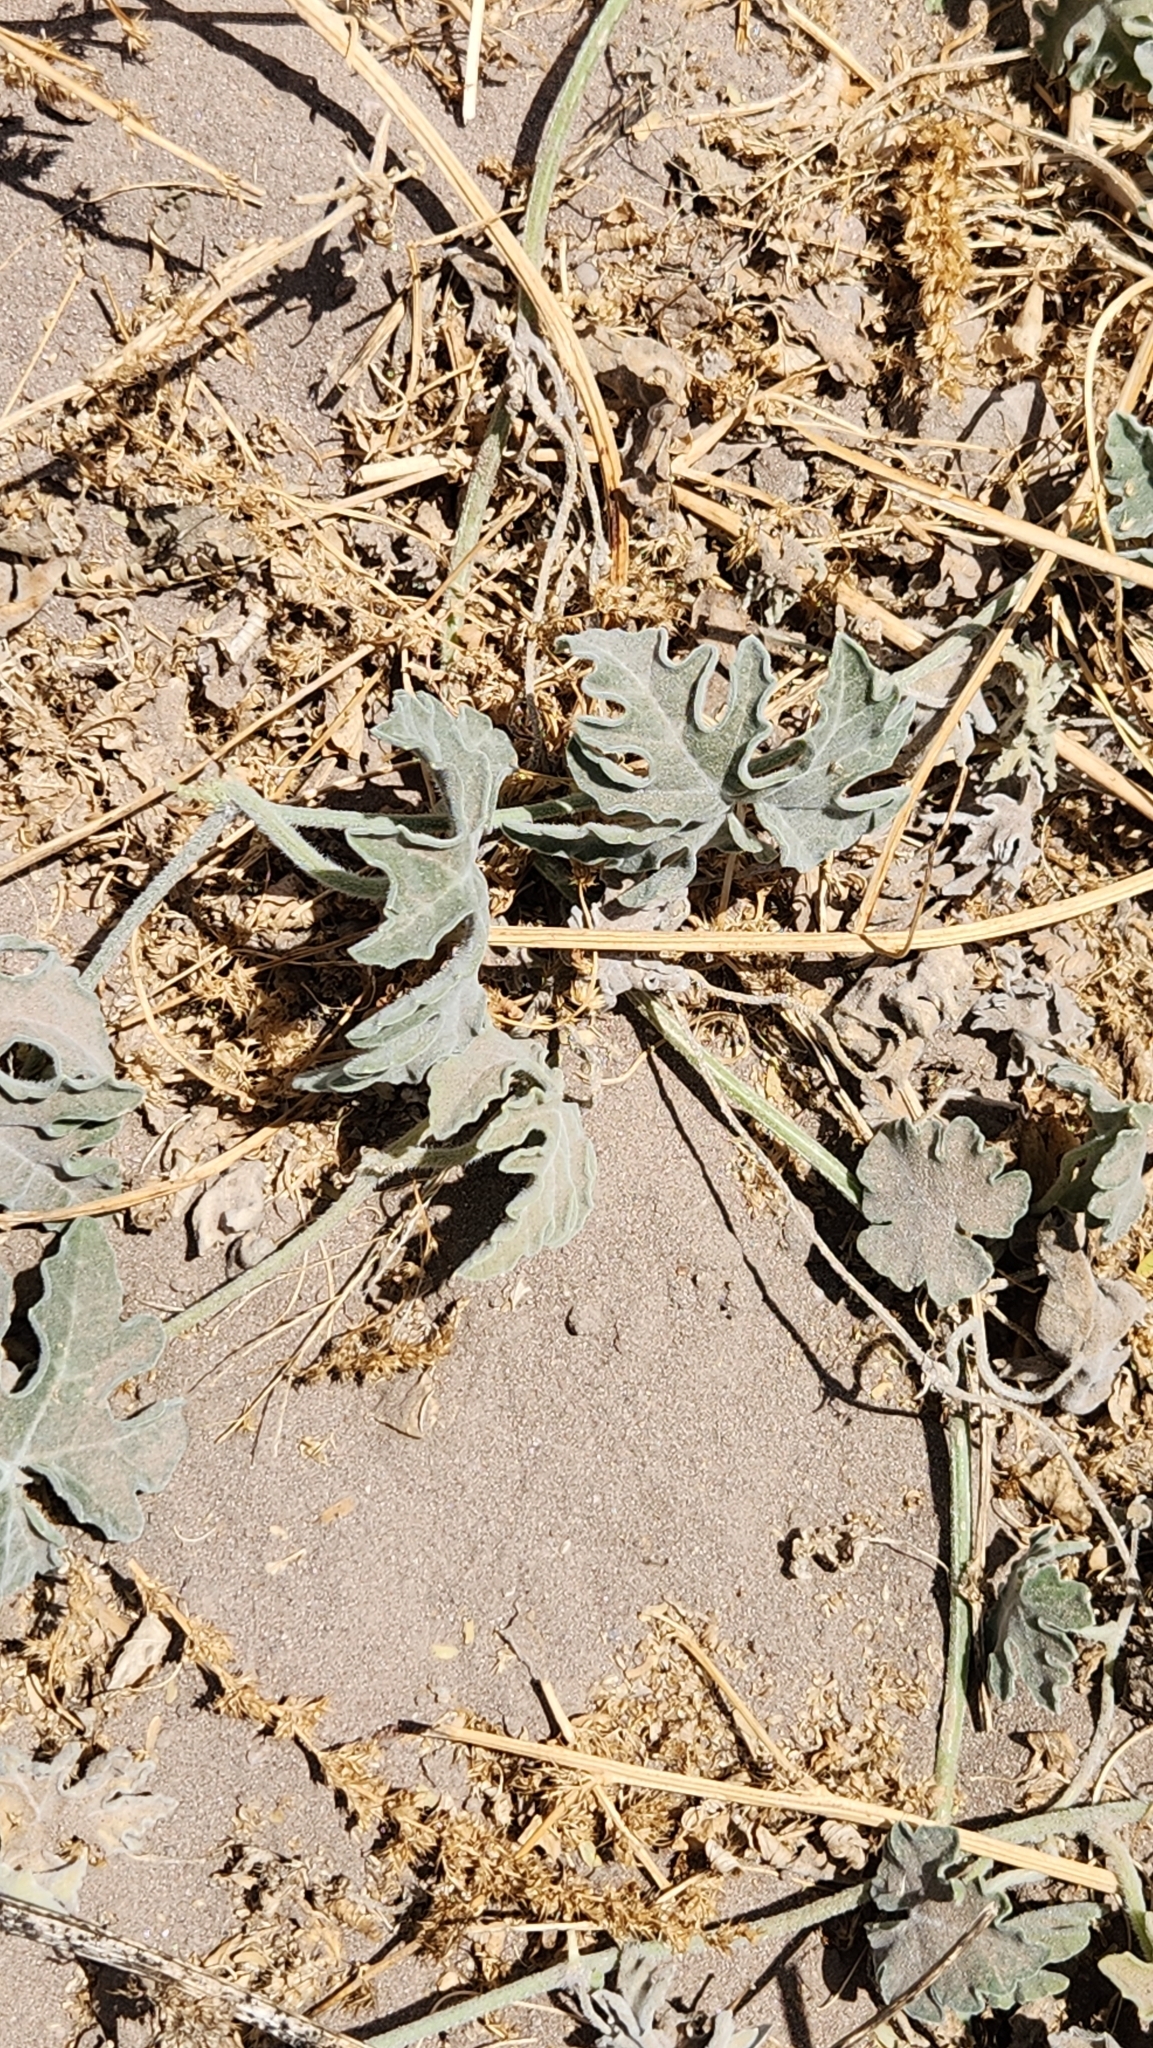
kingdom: Plantae
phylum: Tracheophyta
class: Magnoliopsida
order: Cucurbitales
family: Cucurbitaceae
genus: Cucurbita
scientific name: Cucurbita cordata
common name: Coyote gourd
